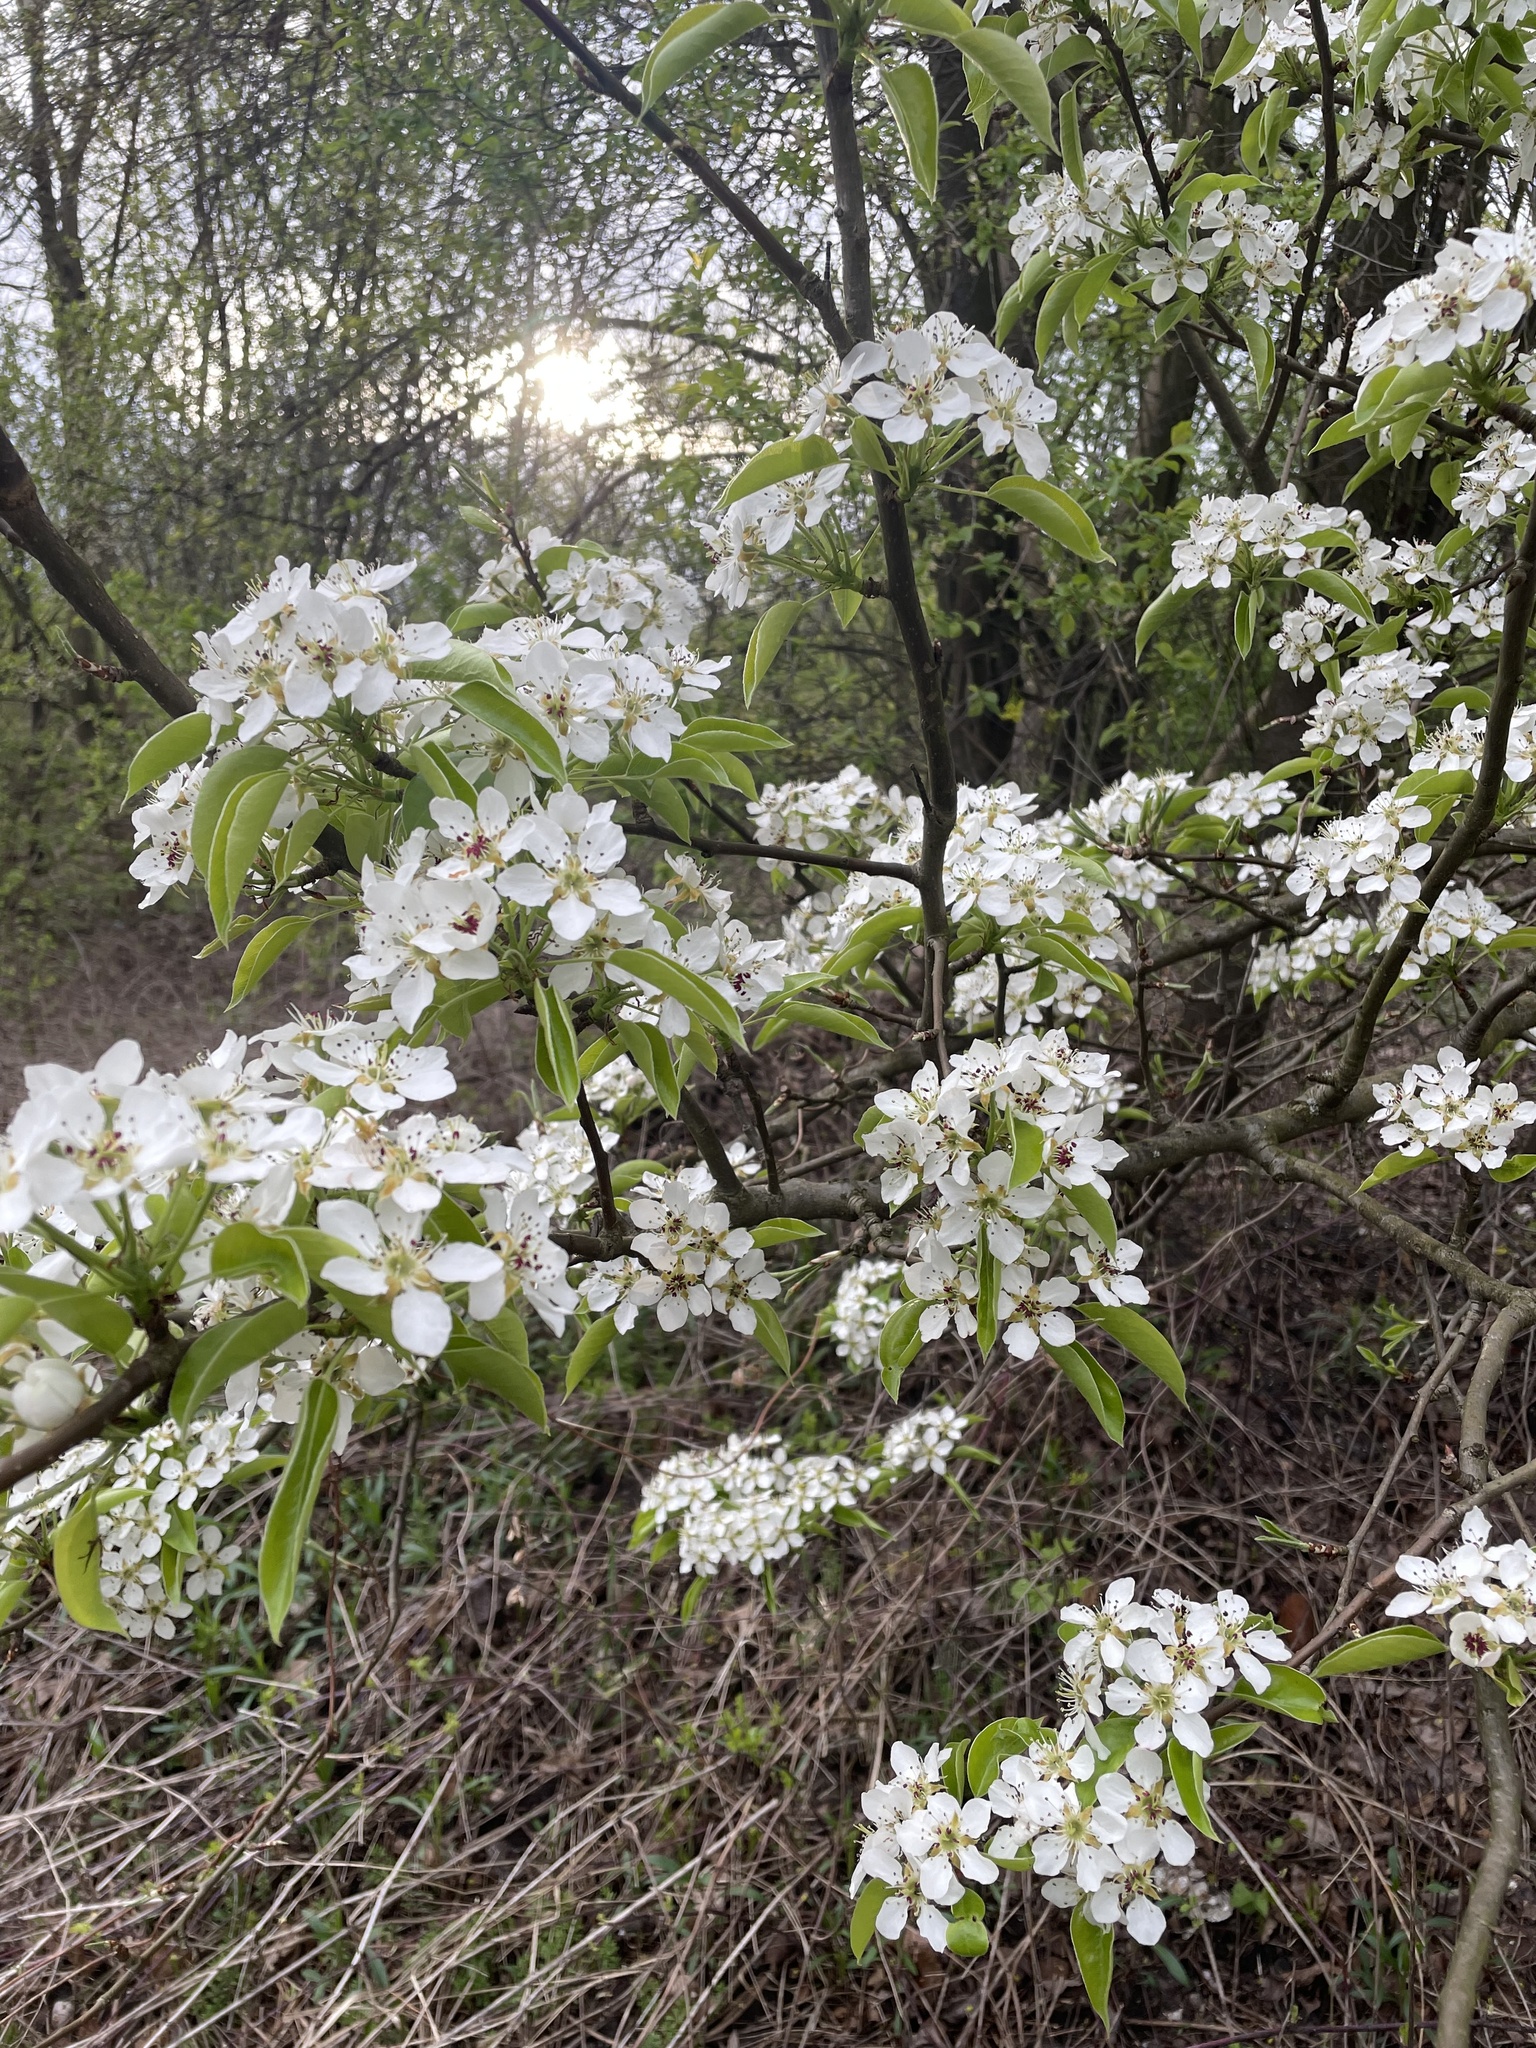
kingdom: Plantae
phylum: Tracheophyta
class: Magnoliopsida
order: Rosales
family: Rosaceae
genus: Pyrus
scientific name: Pyrus communis
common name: Pear
